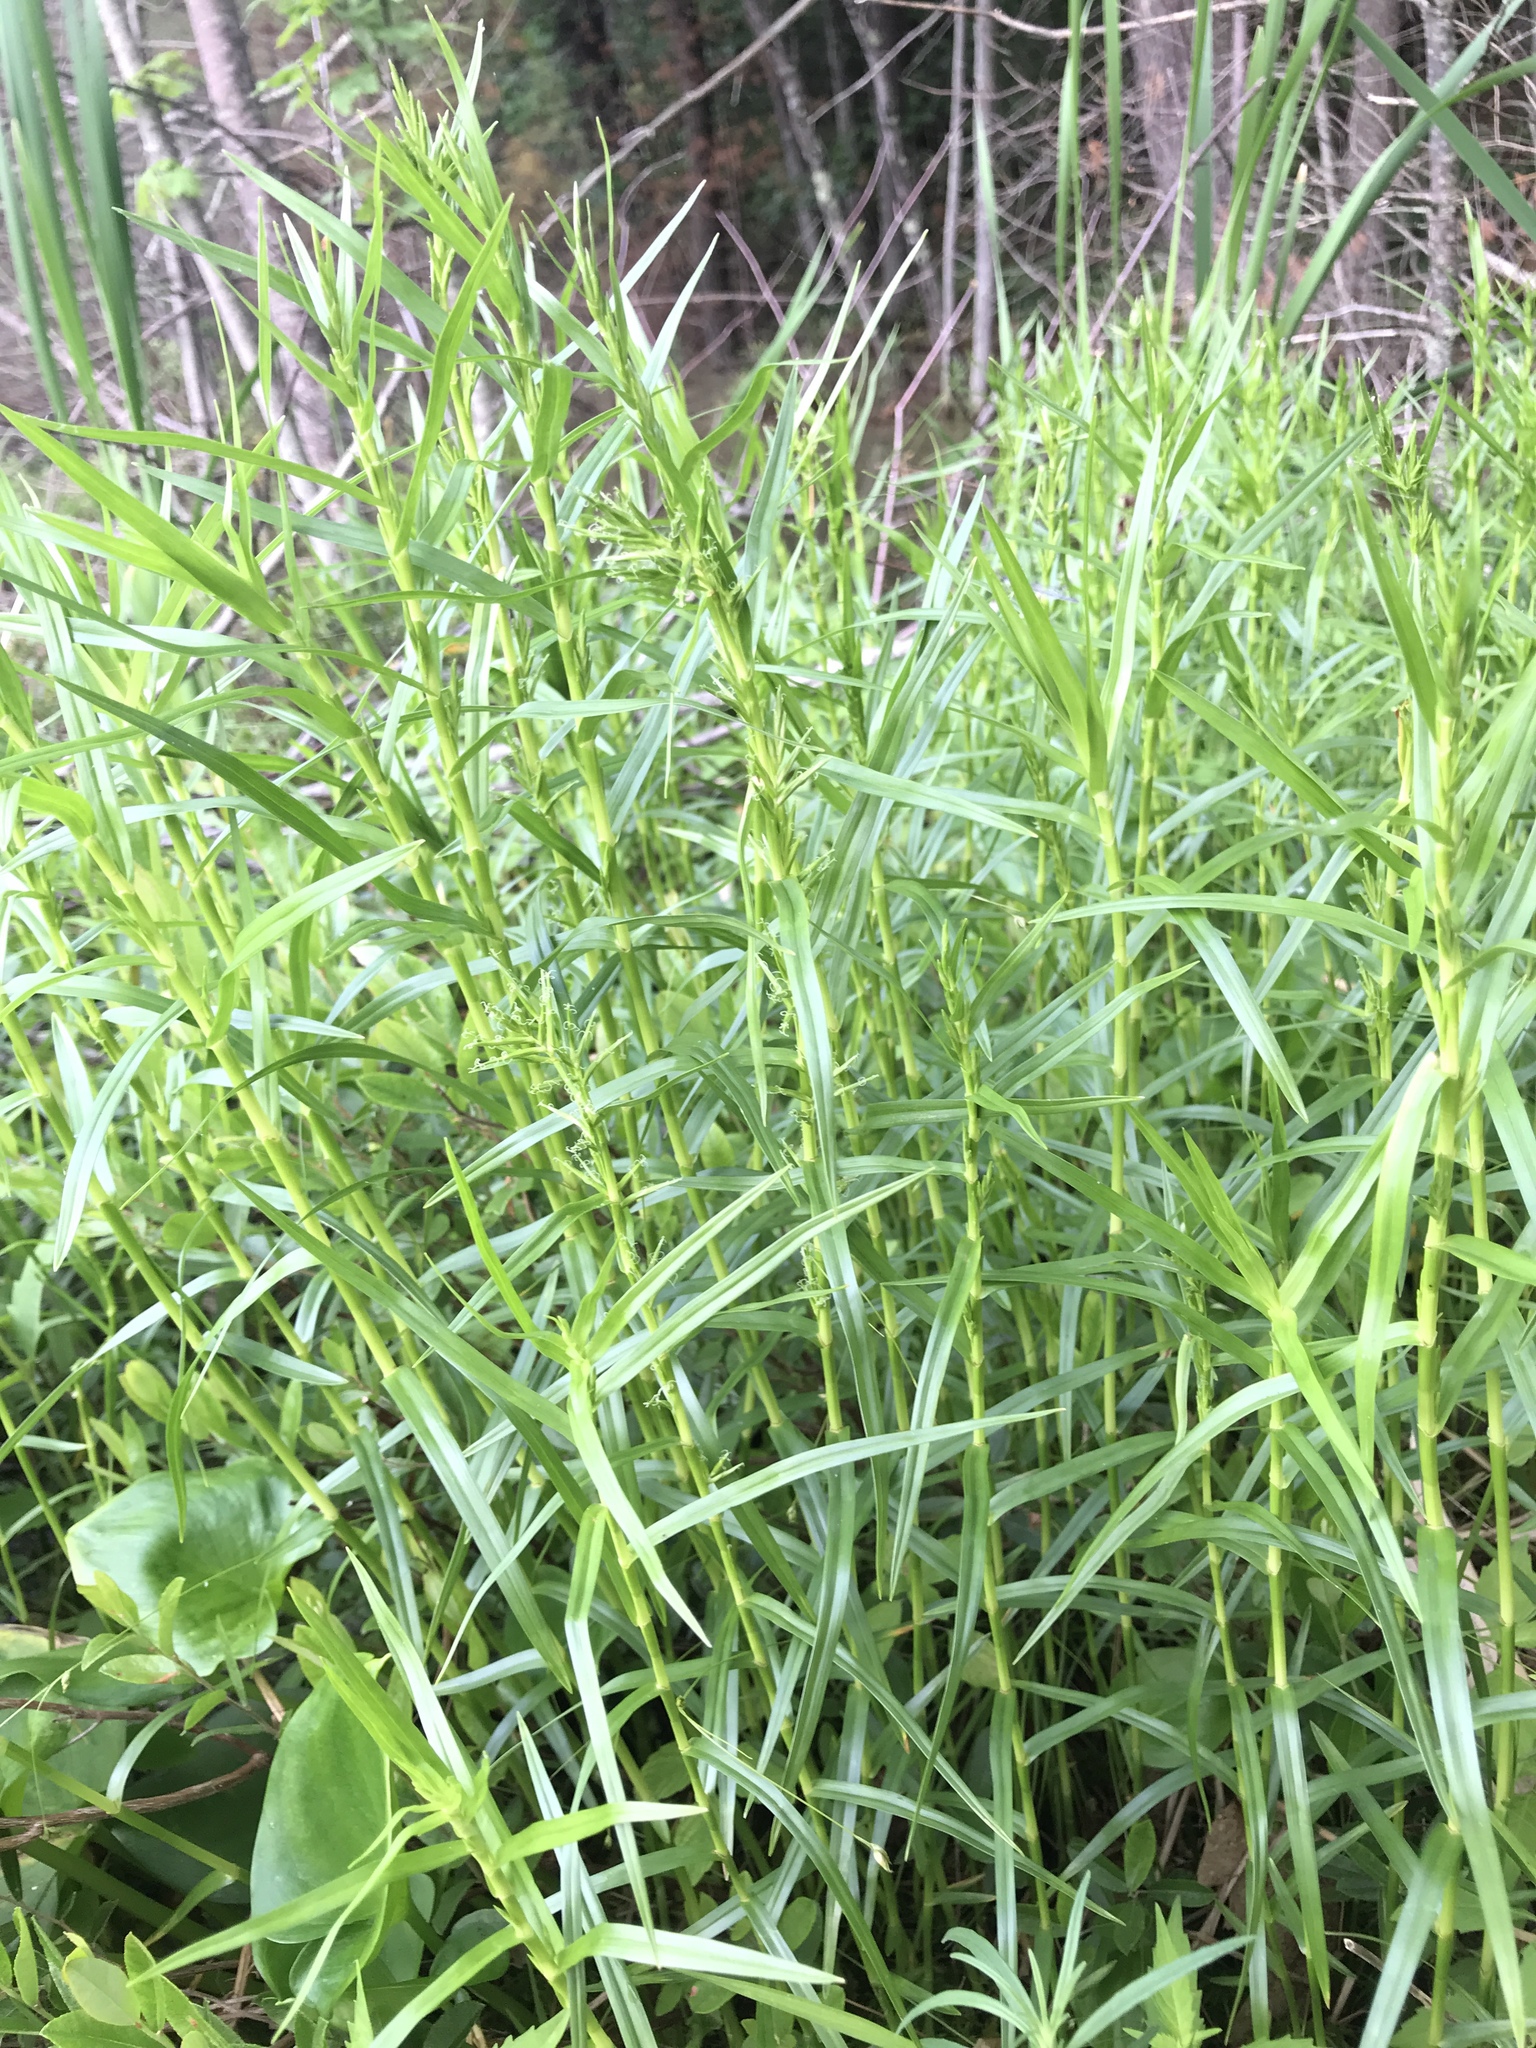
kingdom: Plantae
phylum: Tracheophyta
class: Liliopsida
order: Poales
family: Cyperaceae
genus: Dulichium
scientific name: Dulichium arundinaceum
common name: Three-way sedge
